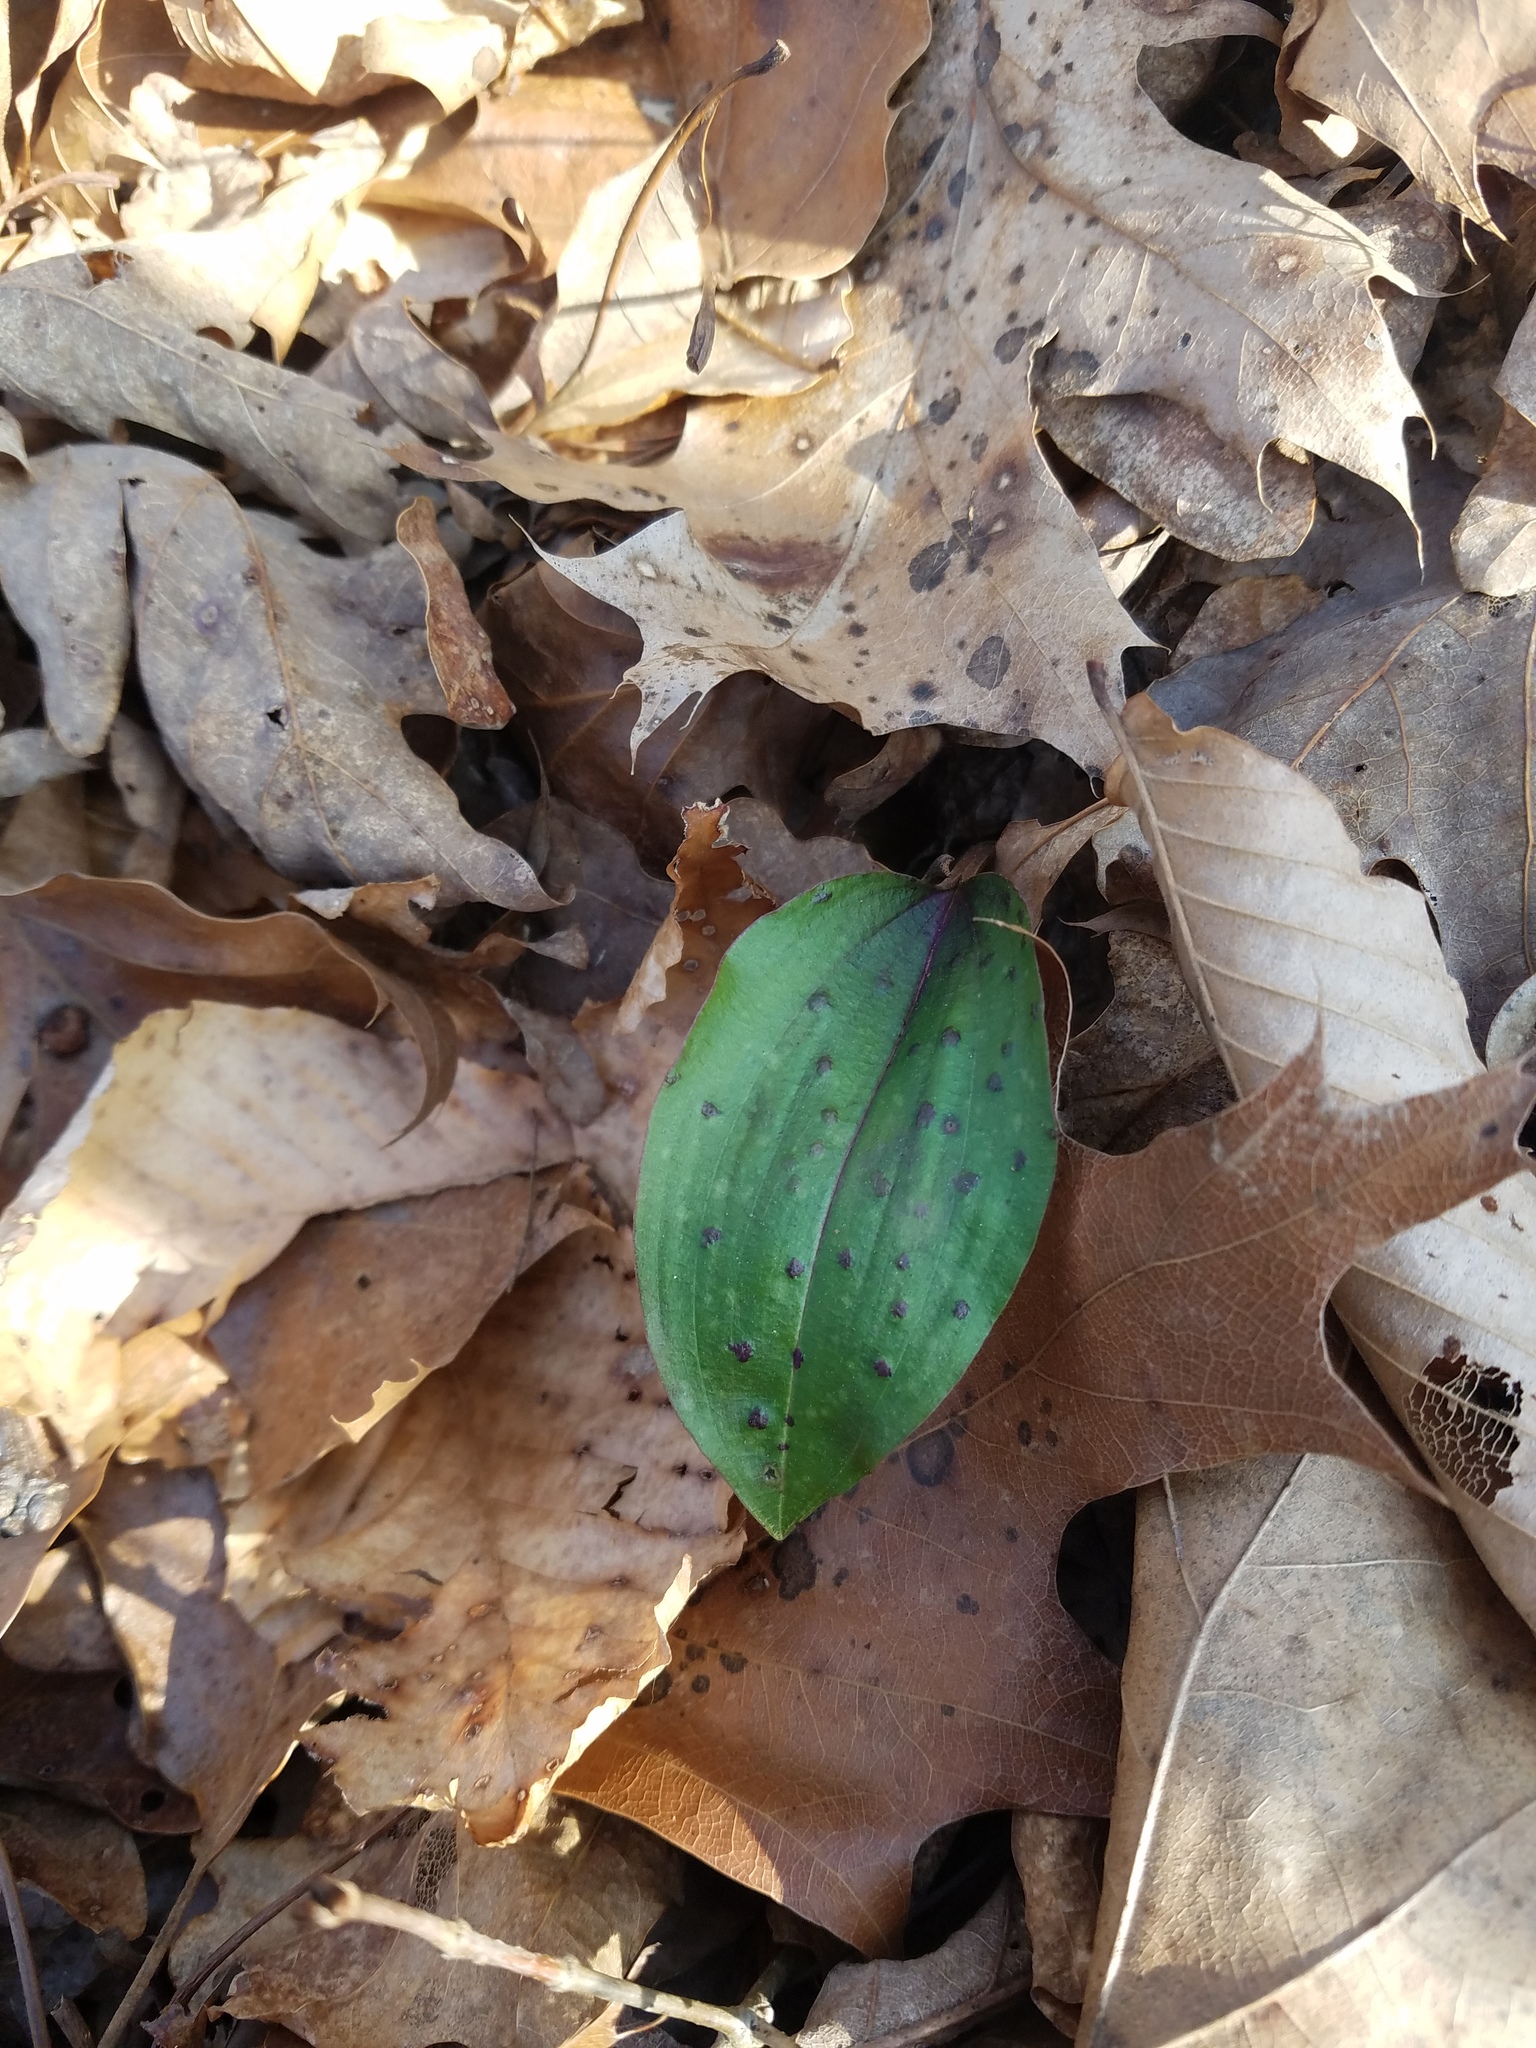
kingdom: Plantae
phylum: Tracheophyta
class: Liliopsida
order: Asparagales
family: Orchidaceae
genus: Tipularia
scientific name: Tipularia discolor
